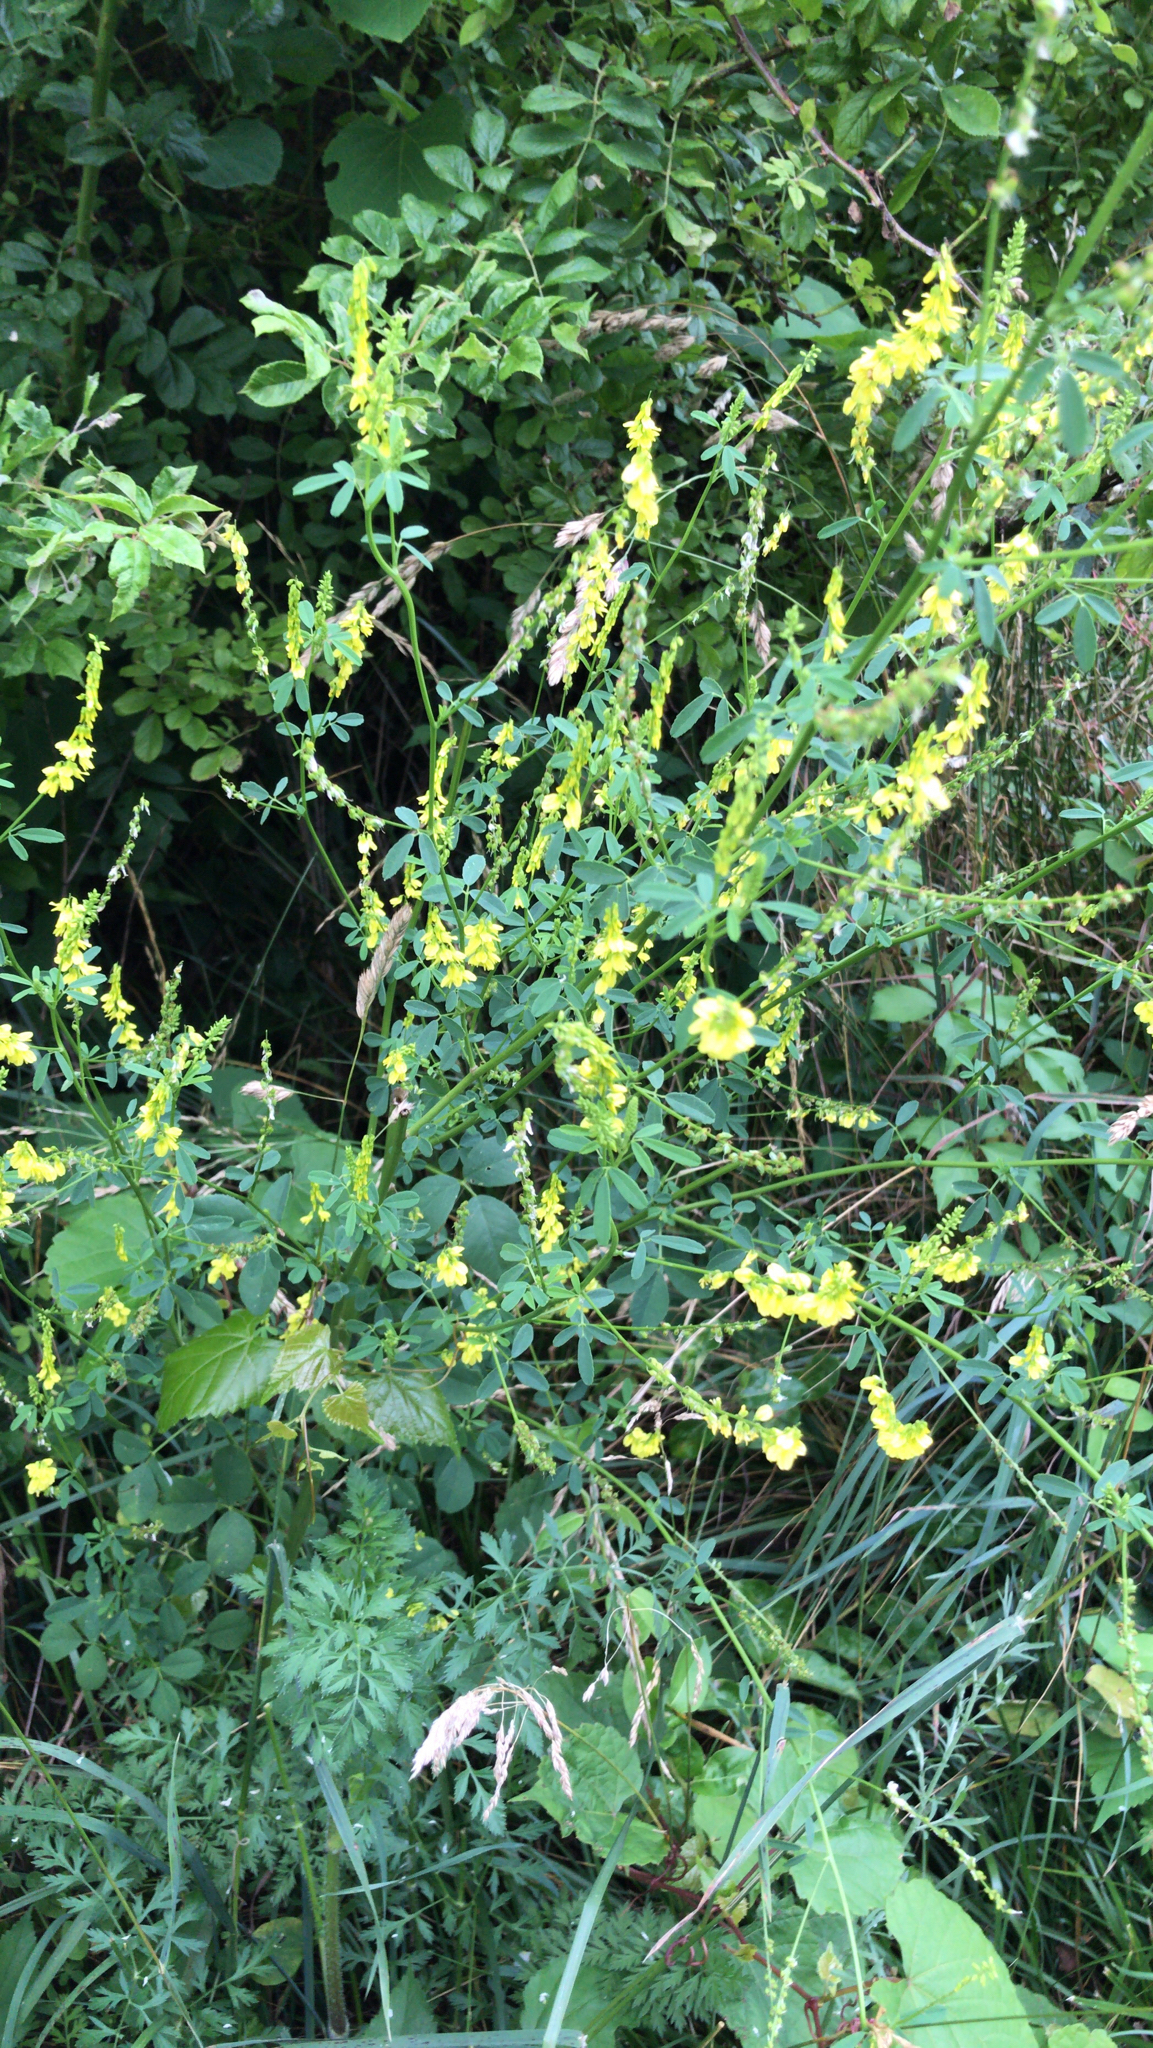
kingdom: Plantae
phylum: Tracheophyta
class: Magnoliopsida
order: Fabales
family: Fabaceae
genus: Melilotus
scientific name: Melilotus officinalis
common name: Sweetclover
